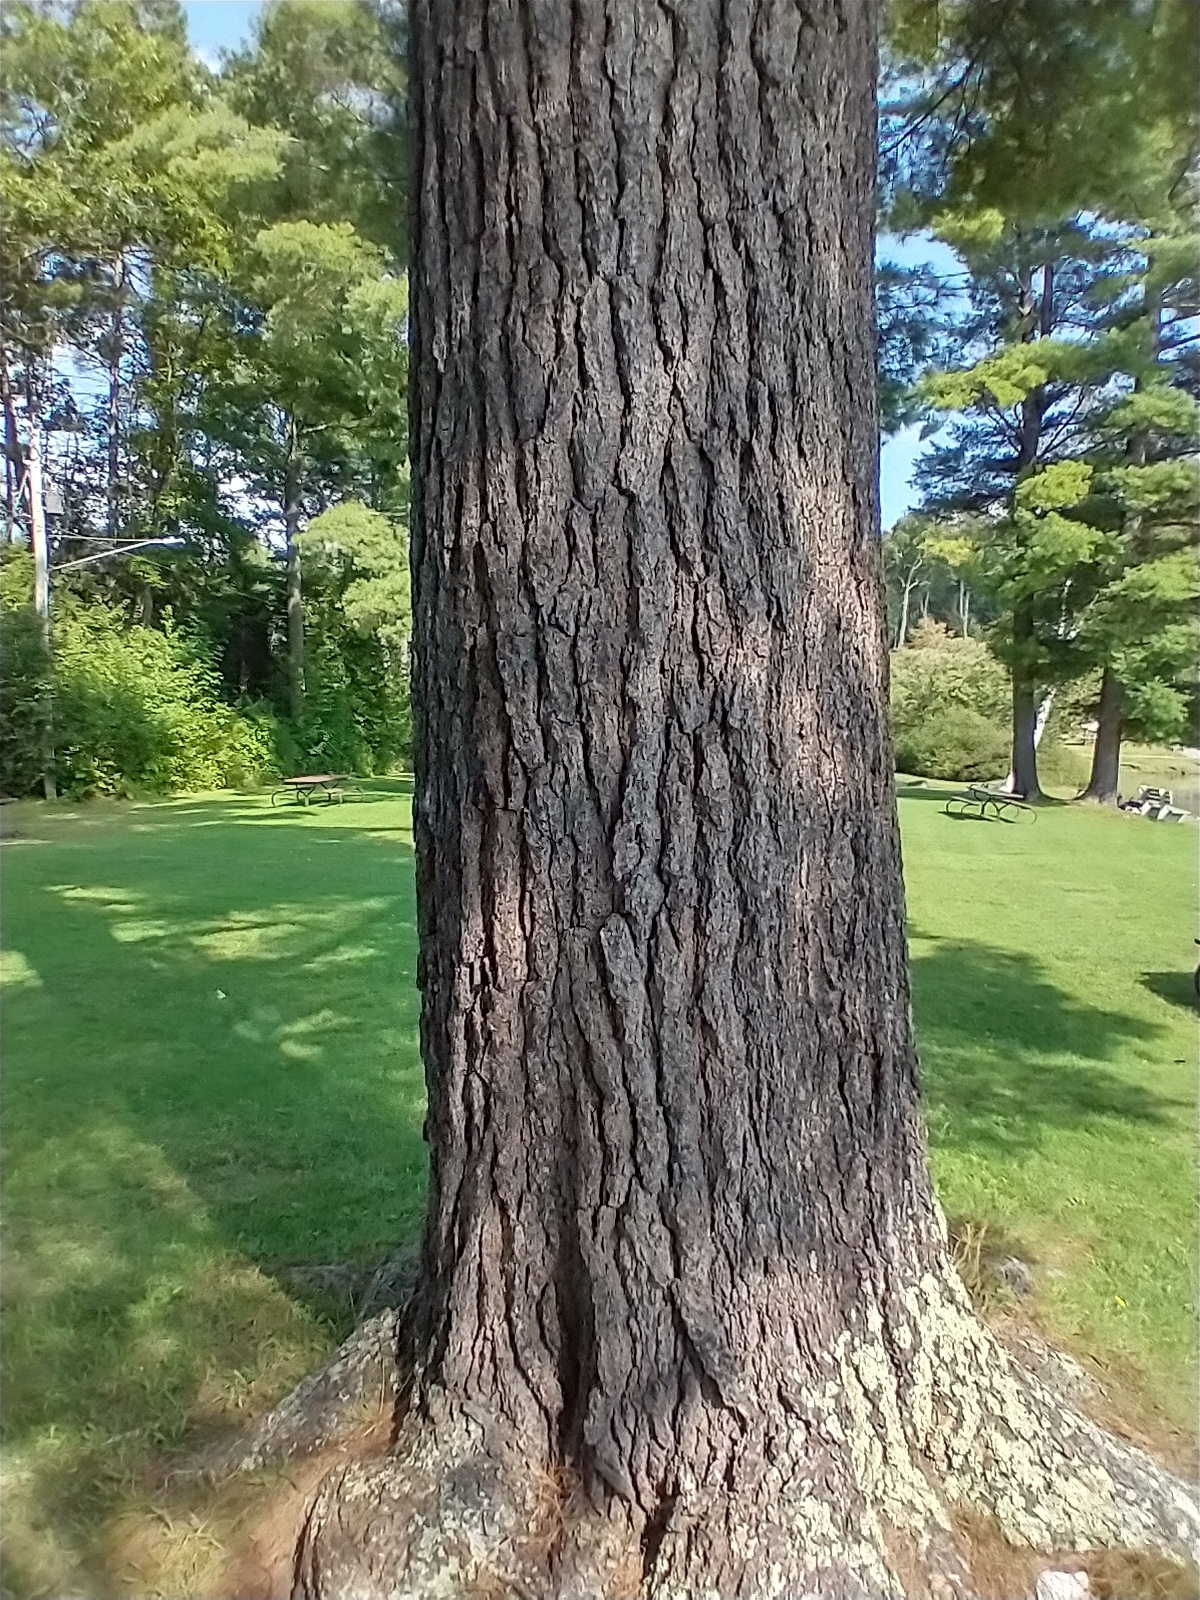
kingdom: Plantae
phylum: Tracheophyta
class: Pinopsida
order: Pinales
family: Pinaceae
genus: Pinus
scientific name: Pinus strobus
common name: Weymouth pine
